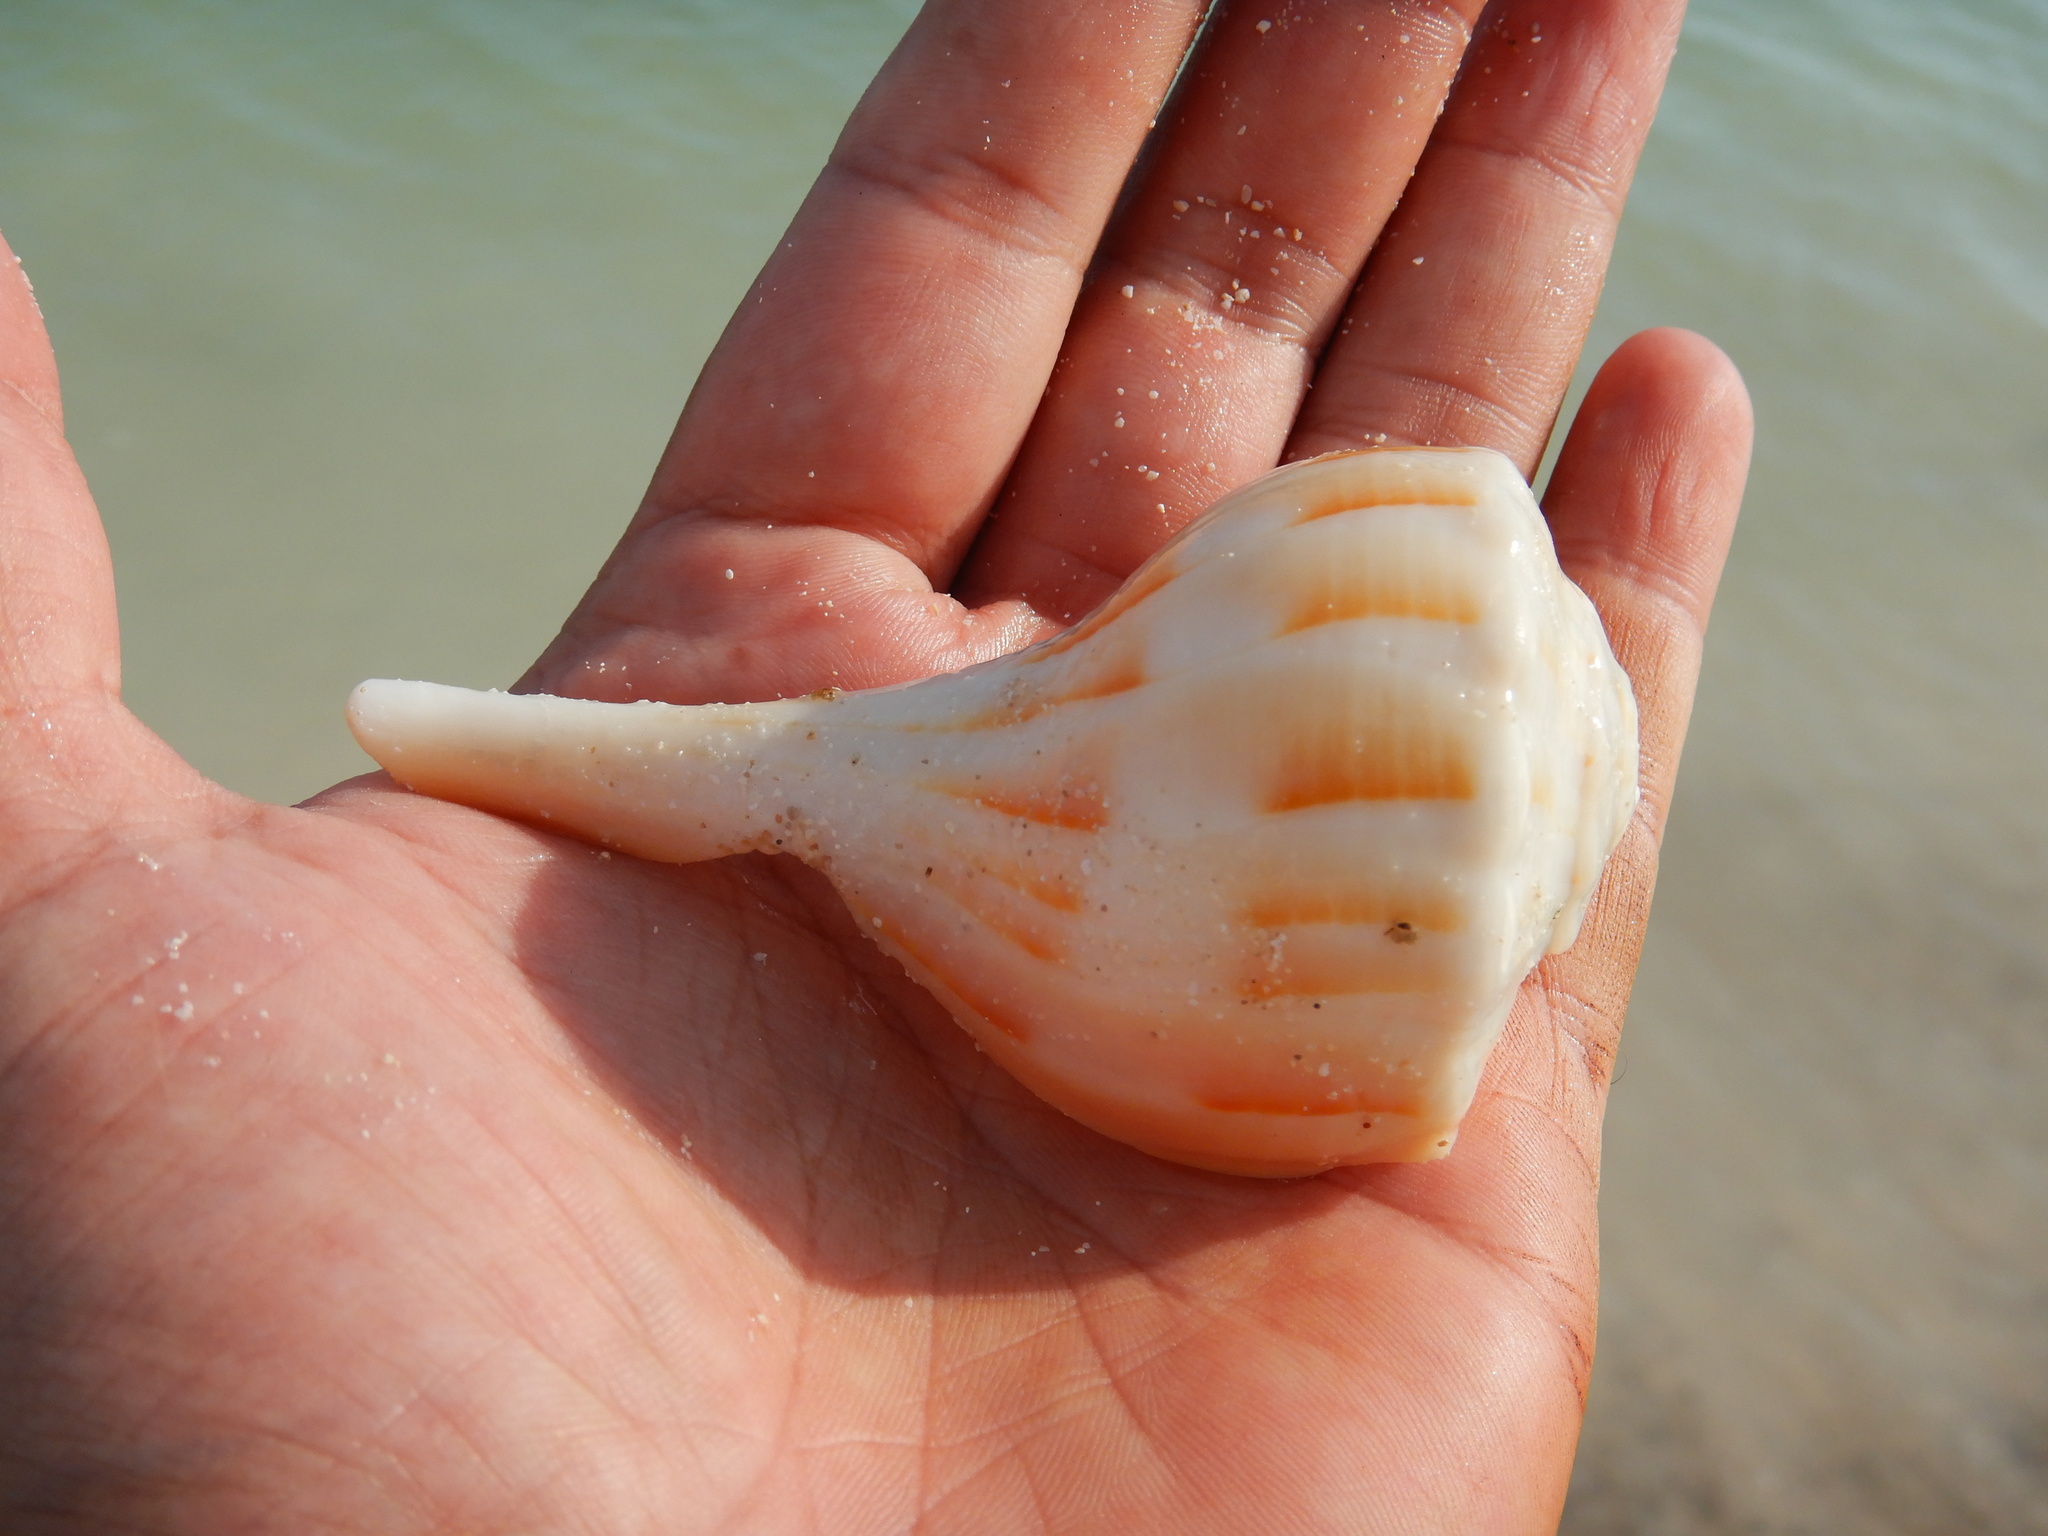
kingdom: Animalia
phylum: Mollusca
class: Gastropoda
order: Neogastropoda
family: Busyconidae
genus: Sinistrofulgur
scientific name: Sinistrofulgur sinistrum
